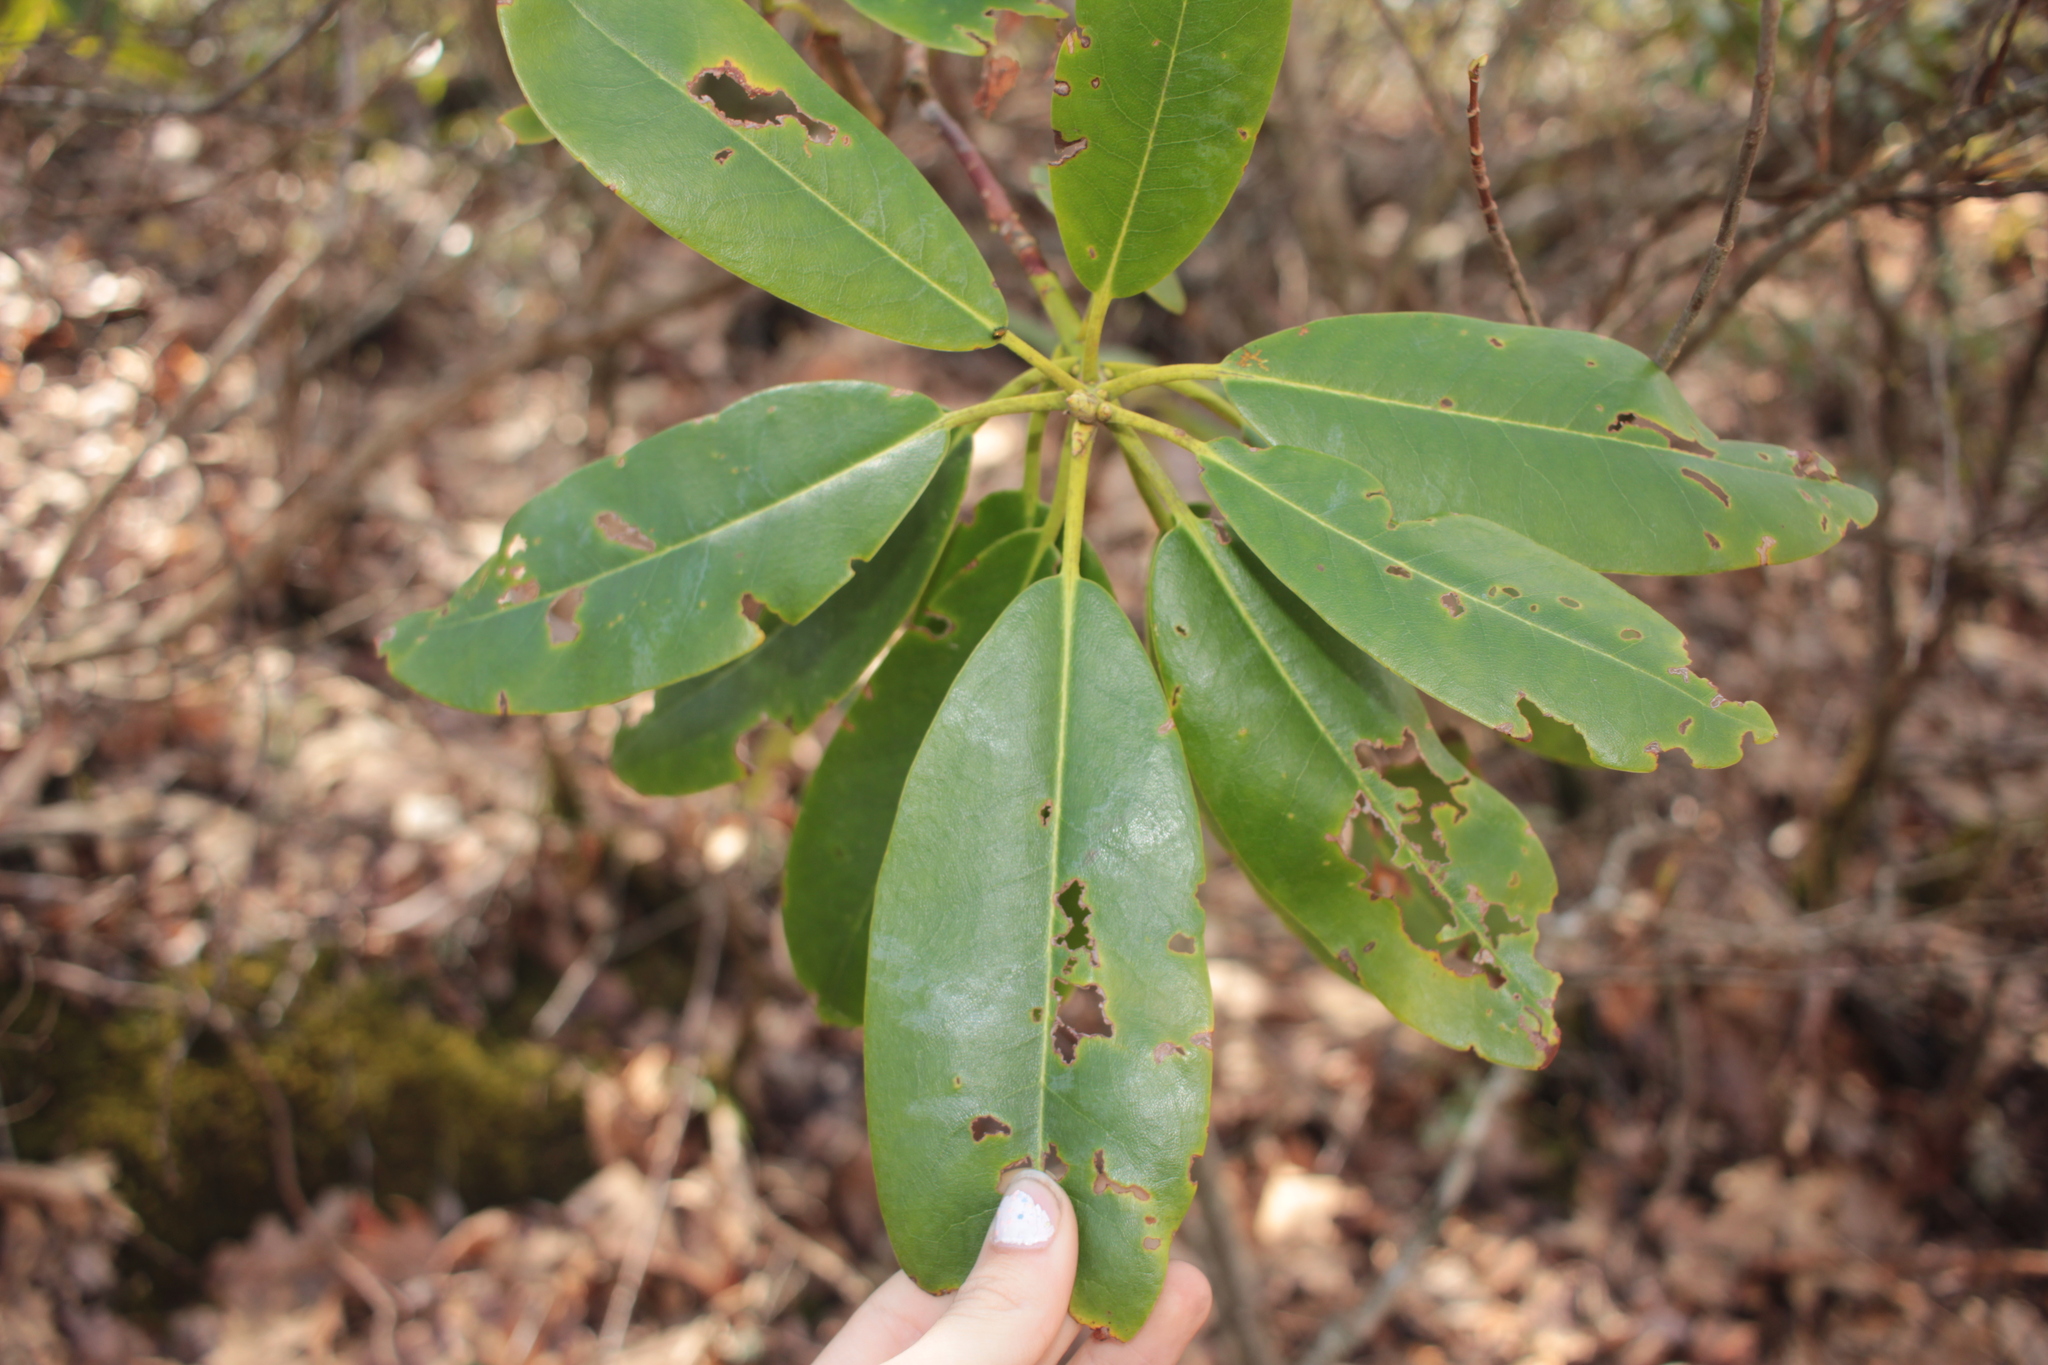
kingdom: Plantae
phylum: Tracheophyta
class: Magnoliopsida
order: Ericales
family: Ericaceae
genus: Rhododendron
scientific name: Rhododendron catawbiense
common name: Catawba rhododendron
